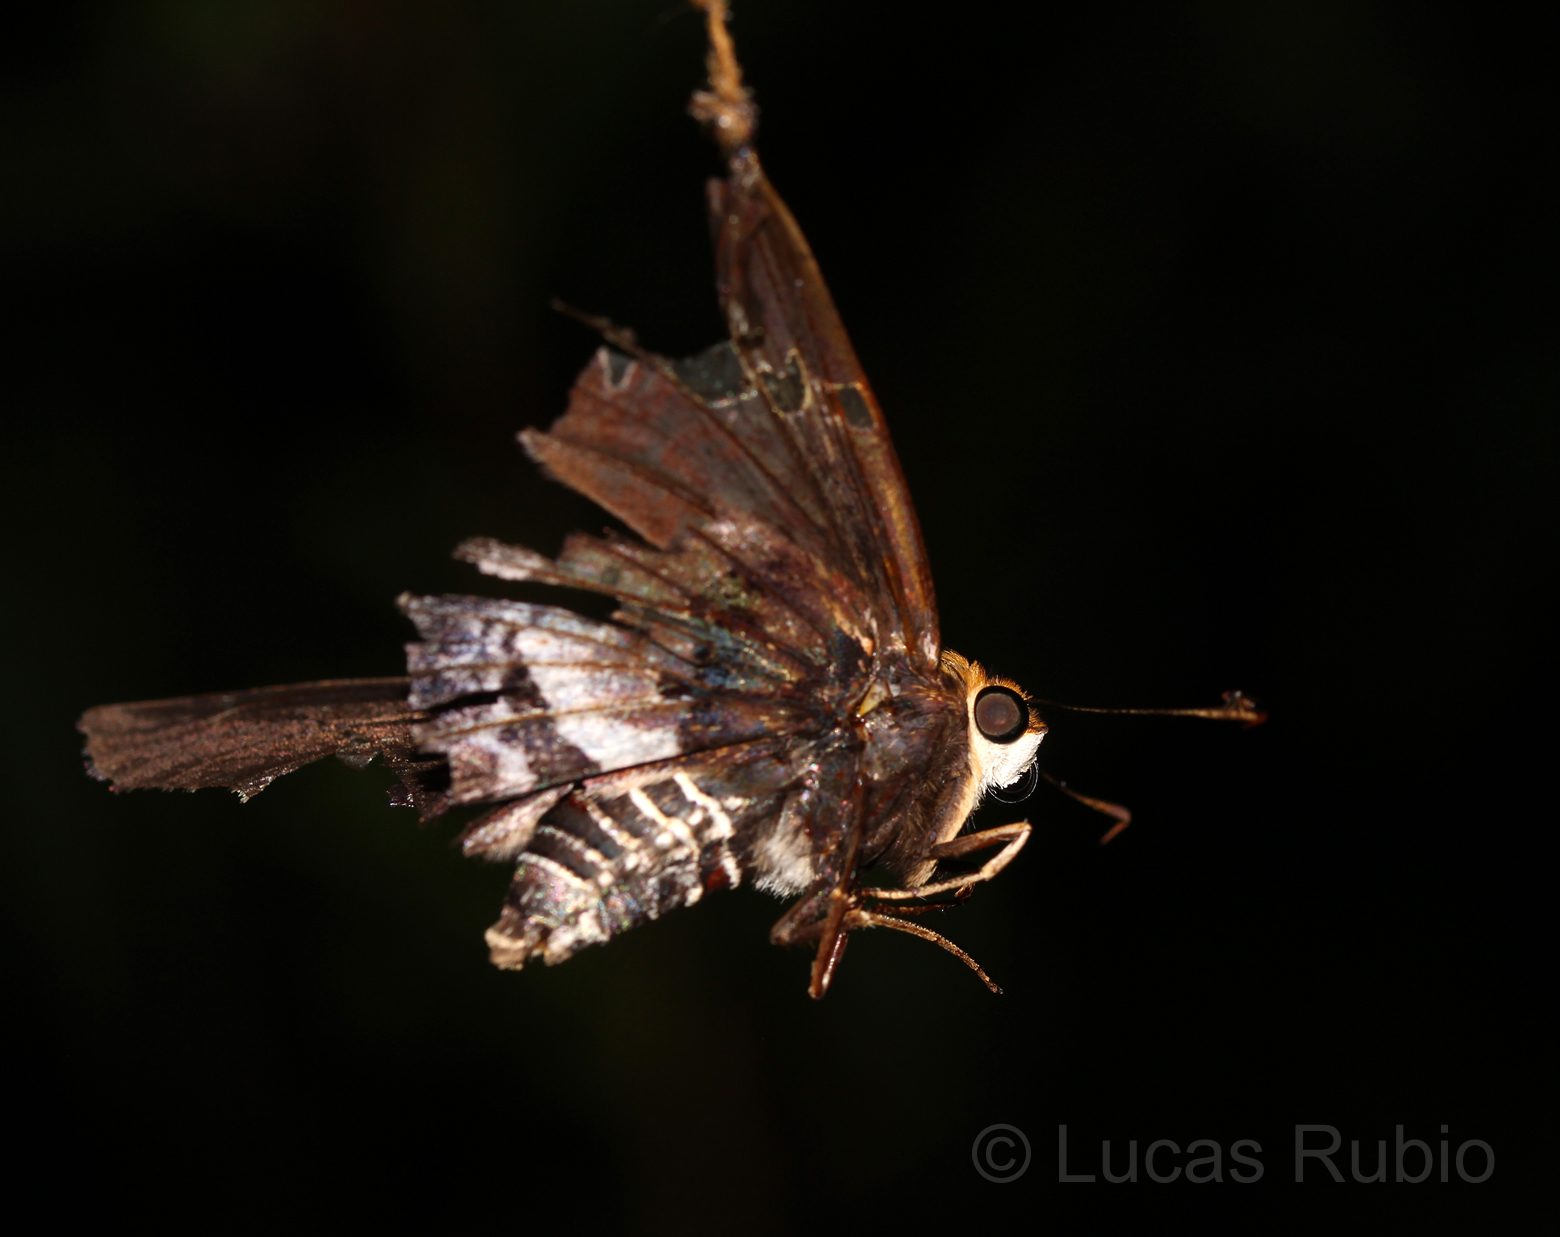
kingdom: Animalia
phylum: Arthropoda
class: Insecta
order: Lepidoptera
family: Hesperiidae
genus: Proteides
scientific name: Proteides mercurius
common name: Mercurial skipper
